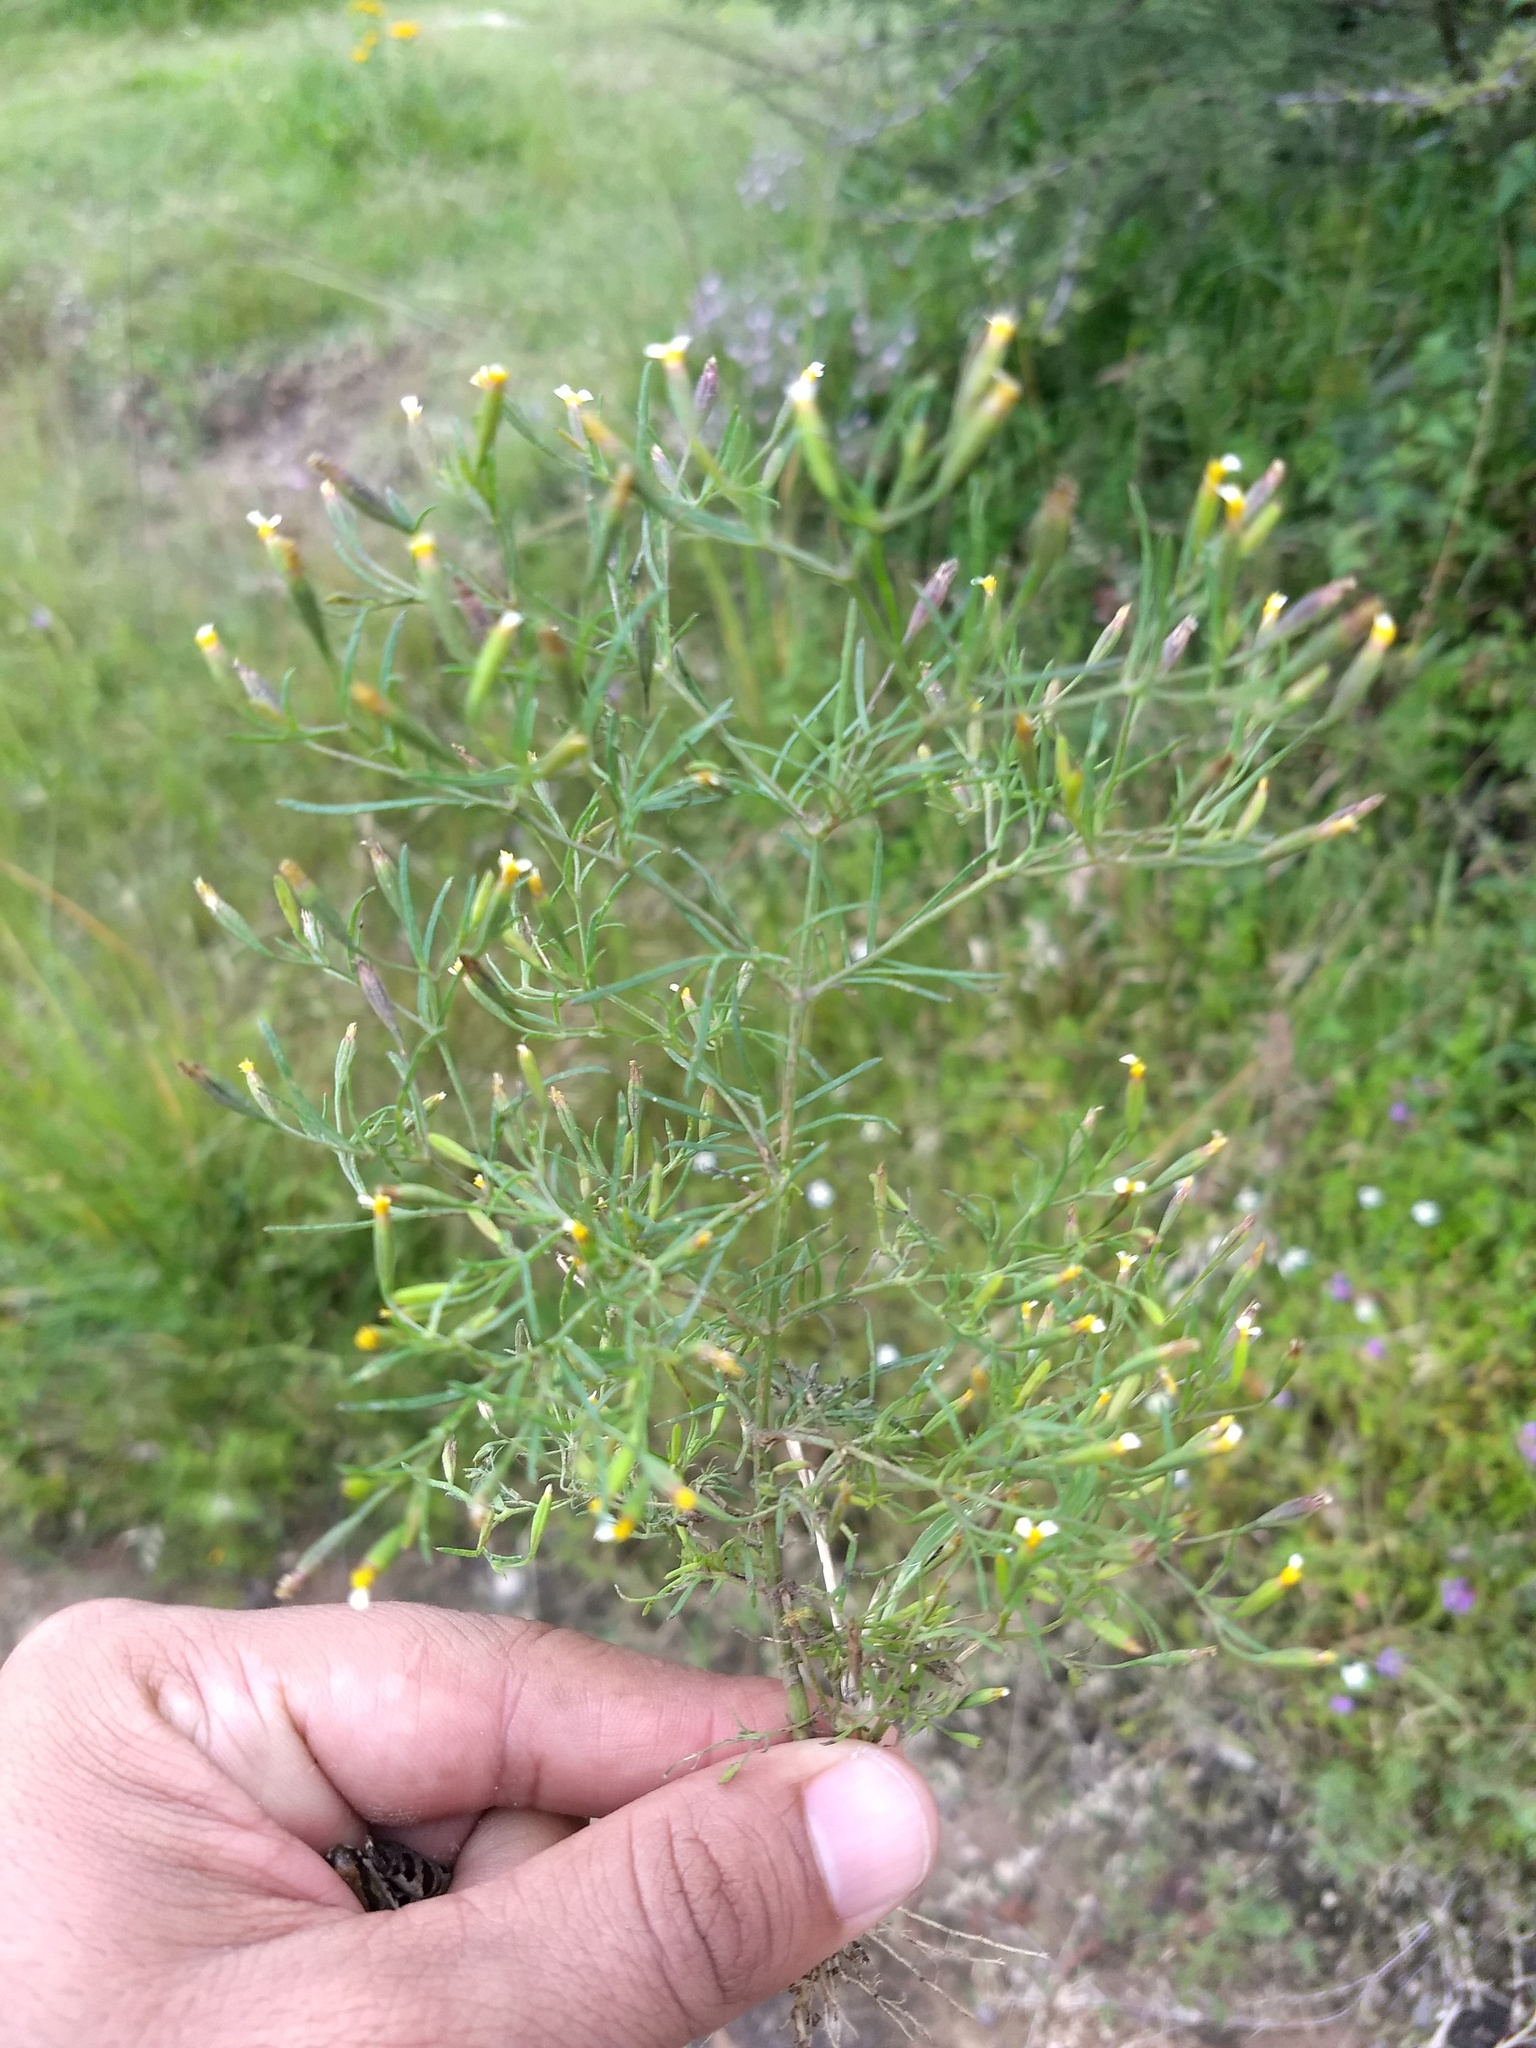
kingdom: Plantae
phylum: Tracheophyta
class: Magnoliopsida
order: Asterales
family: Asteraceae
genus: Tagetes
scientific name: Tagetes micrantha
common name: Licorice marigold
